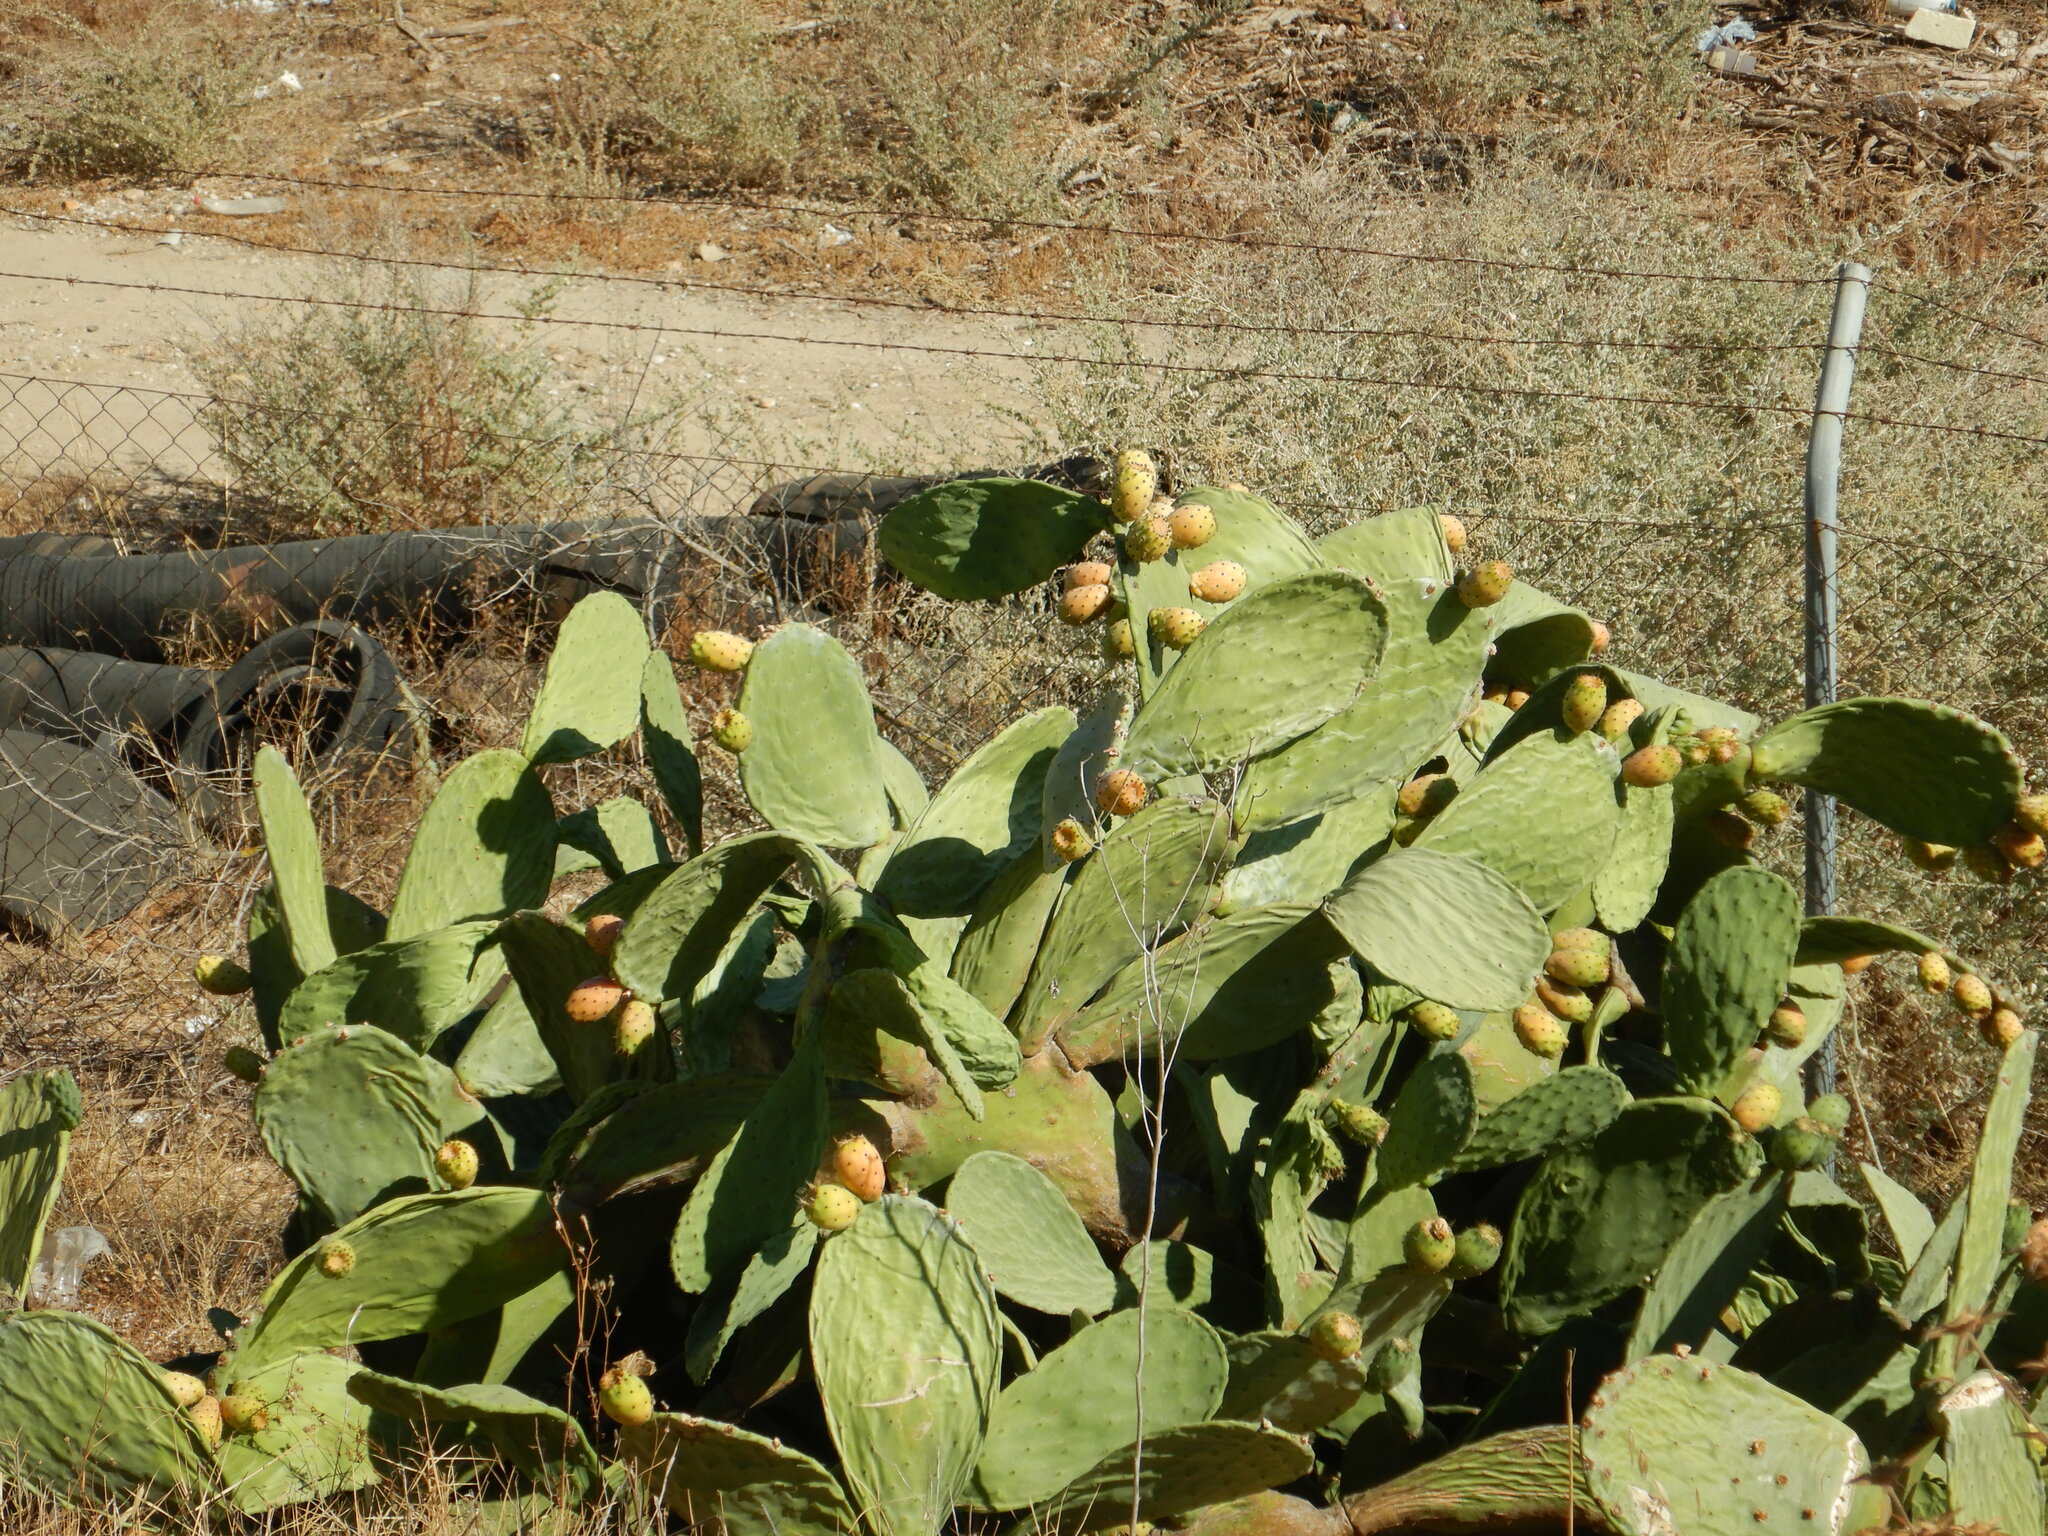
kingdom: Plantae
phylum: Tracheophyta
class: Magnoliopsida
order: Caryophyllales
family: Cactaceae
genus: Opuntia
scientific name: Opuntia ficus-indica
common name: Barbary fig
